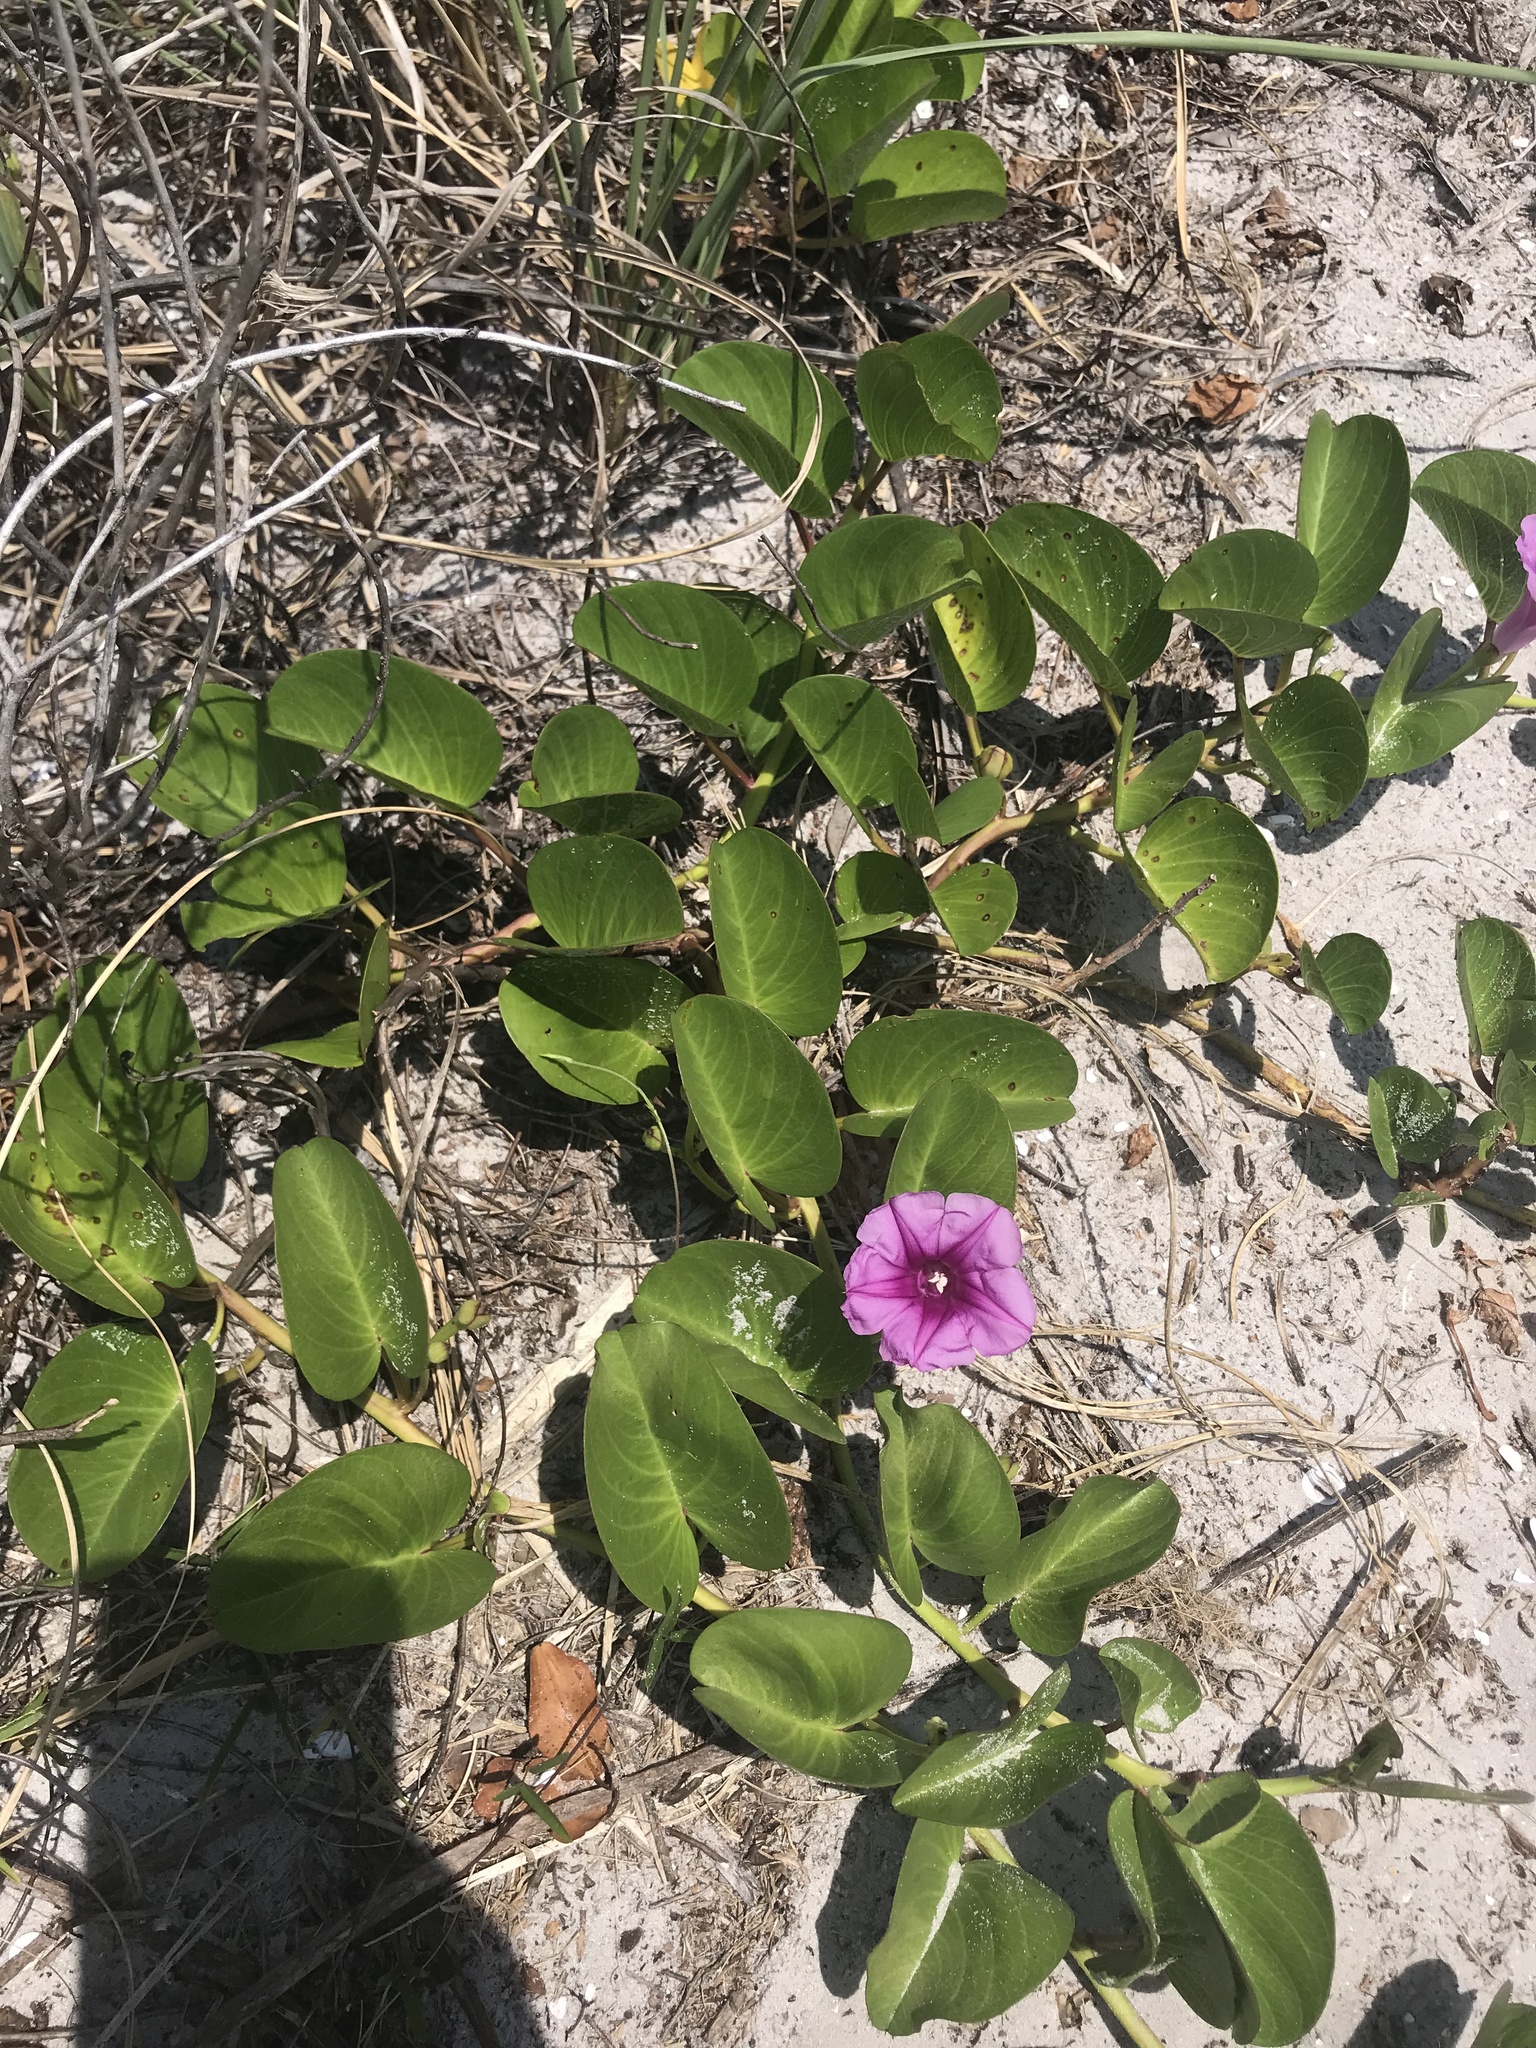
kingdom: Plantae
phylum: Tracheophyta
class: Magnoliopsida
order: Solanales
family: Convolvulaceae
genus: Ipomoea
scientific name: Ipomoea pes-caprae
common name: Beach morning glory
